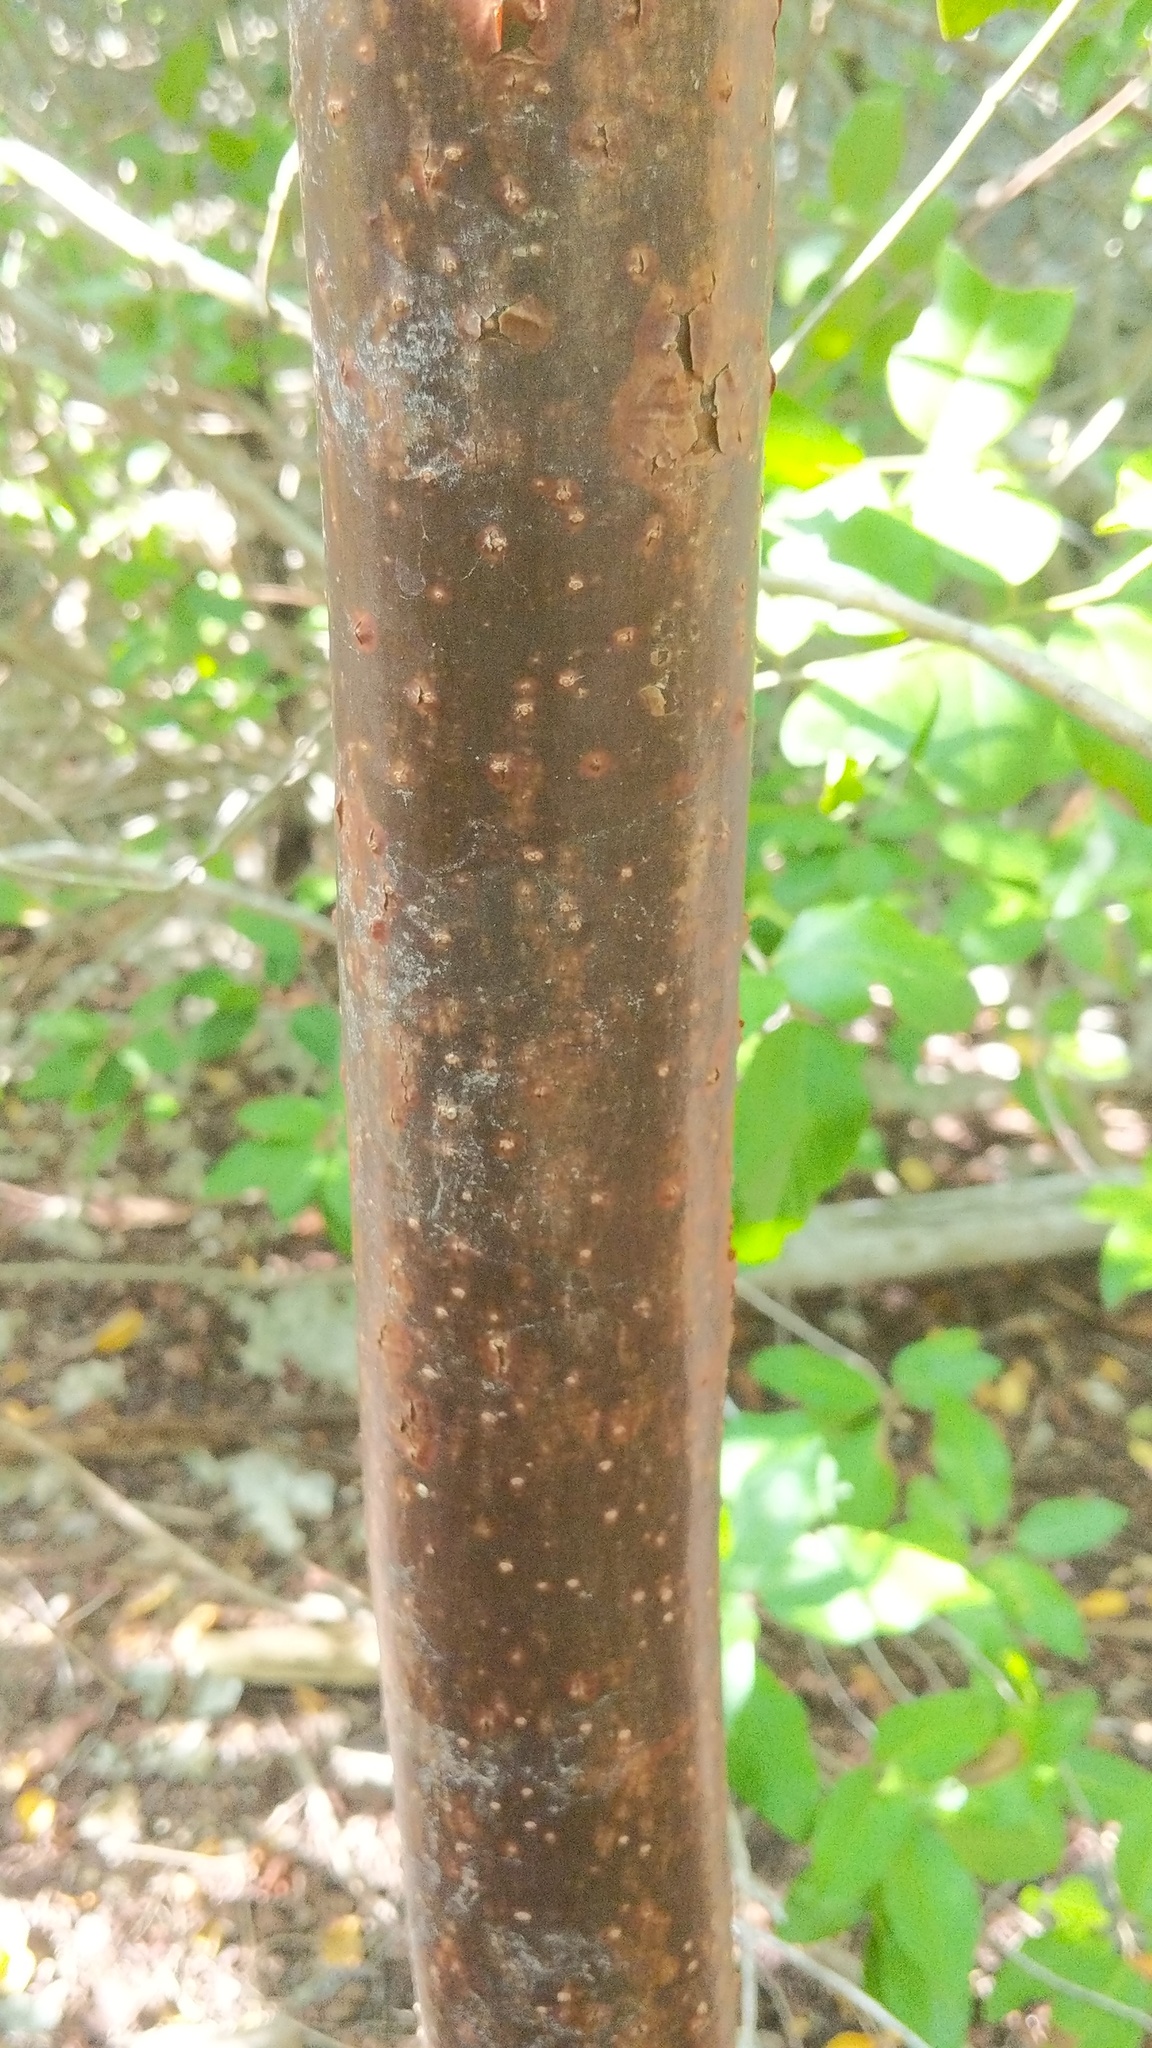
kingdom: Plantae
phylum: Tracheophyta
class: Magnoliopsida
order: Sapindales
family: Burseraceae
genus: Bursera
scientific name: Bursera simaruba
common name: Turpentine tree
